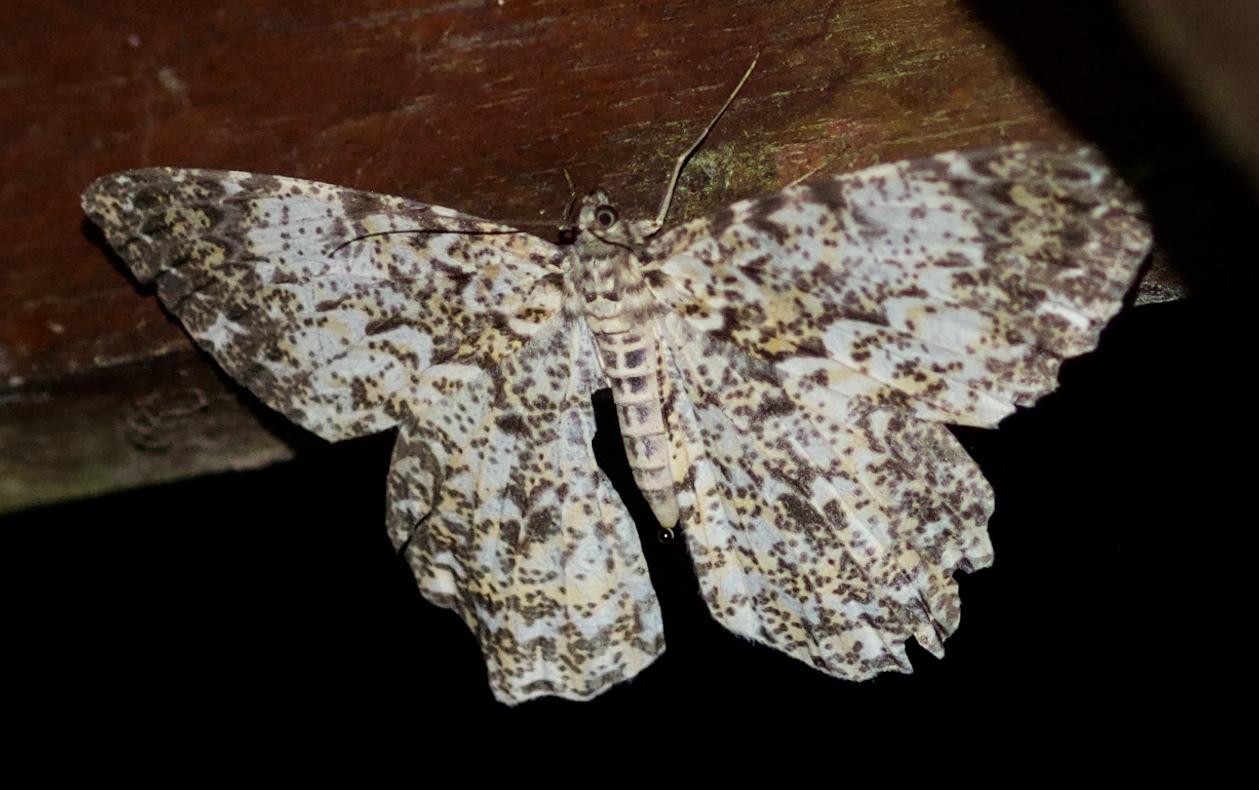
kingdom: Animalia
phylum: Arthropoda
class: Insecta
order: Lepidoptera
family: Geometridae
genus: Amblychia
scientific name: Amblychia cavimargo
